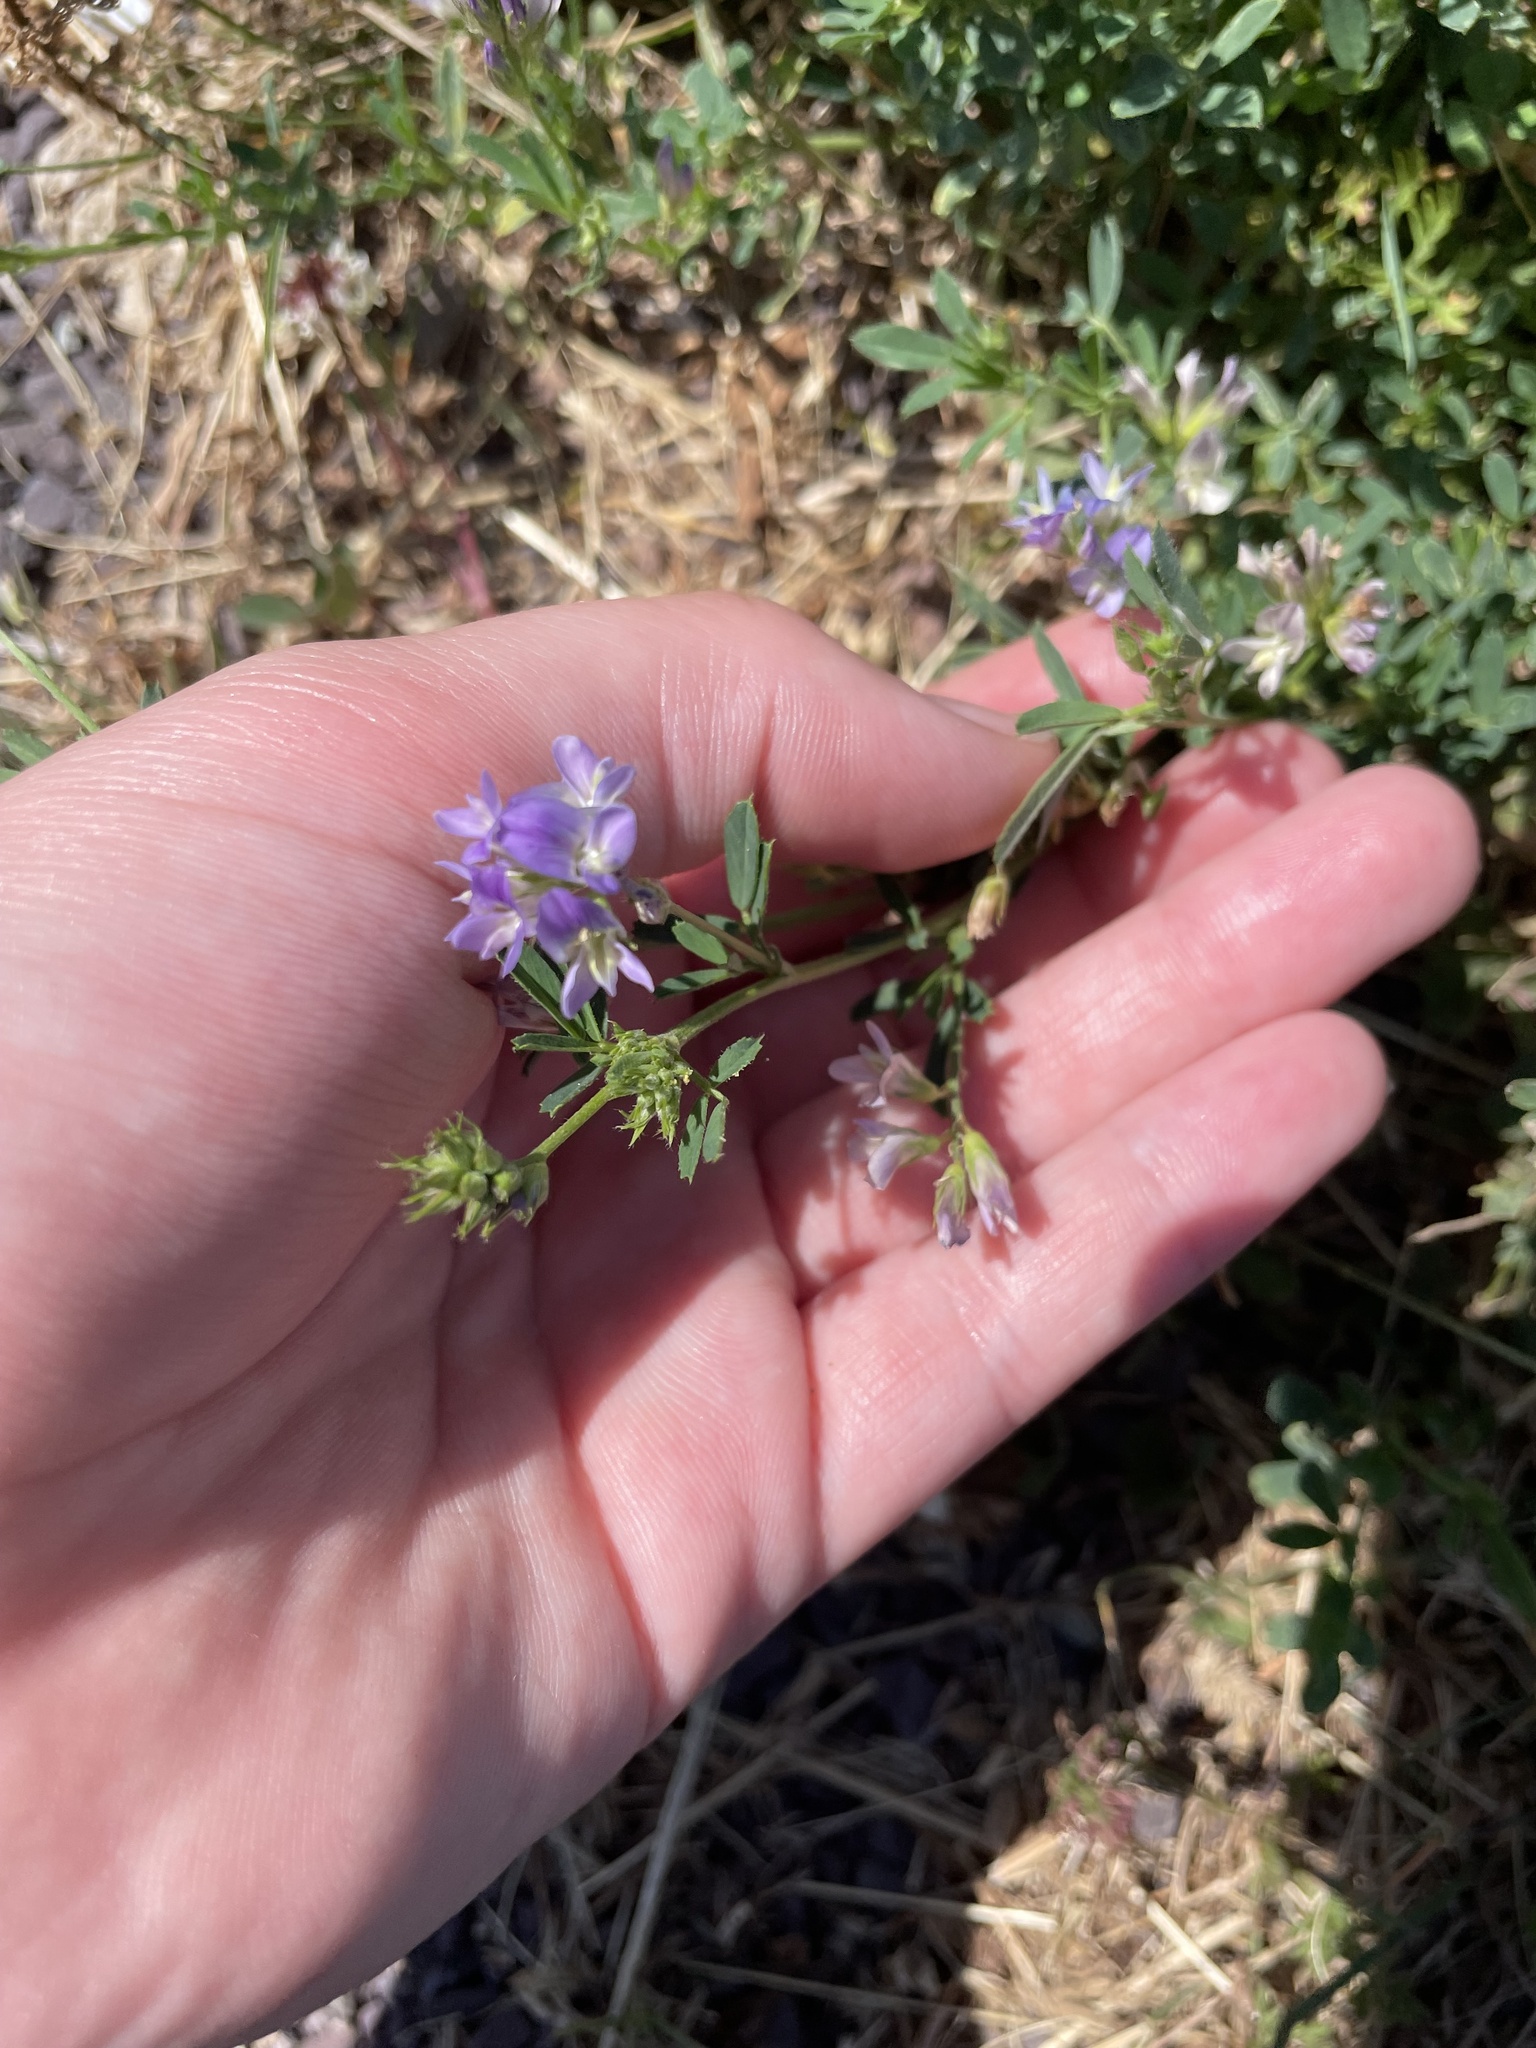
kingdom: Plantae
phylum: Tracheophyta
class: Magnoliopsida
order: Fabales
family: Fabaceae
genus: Medicago
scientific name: Medicago sativa
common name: Alfalfa
